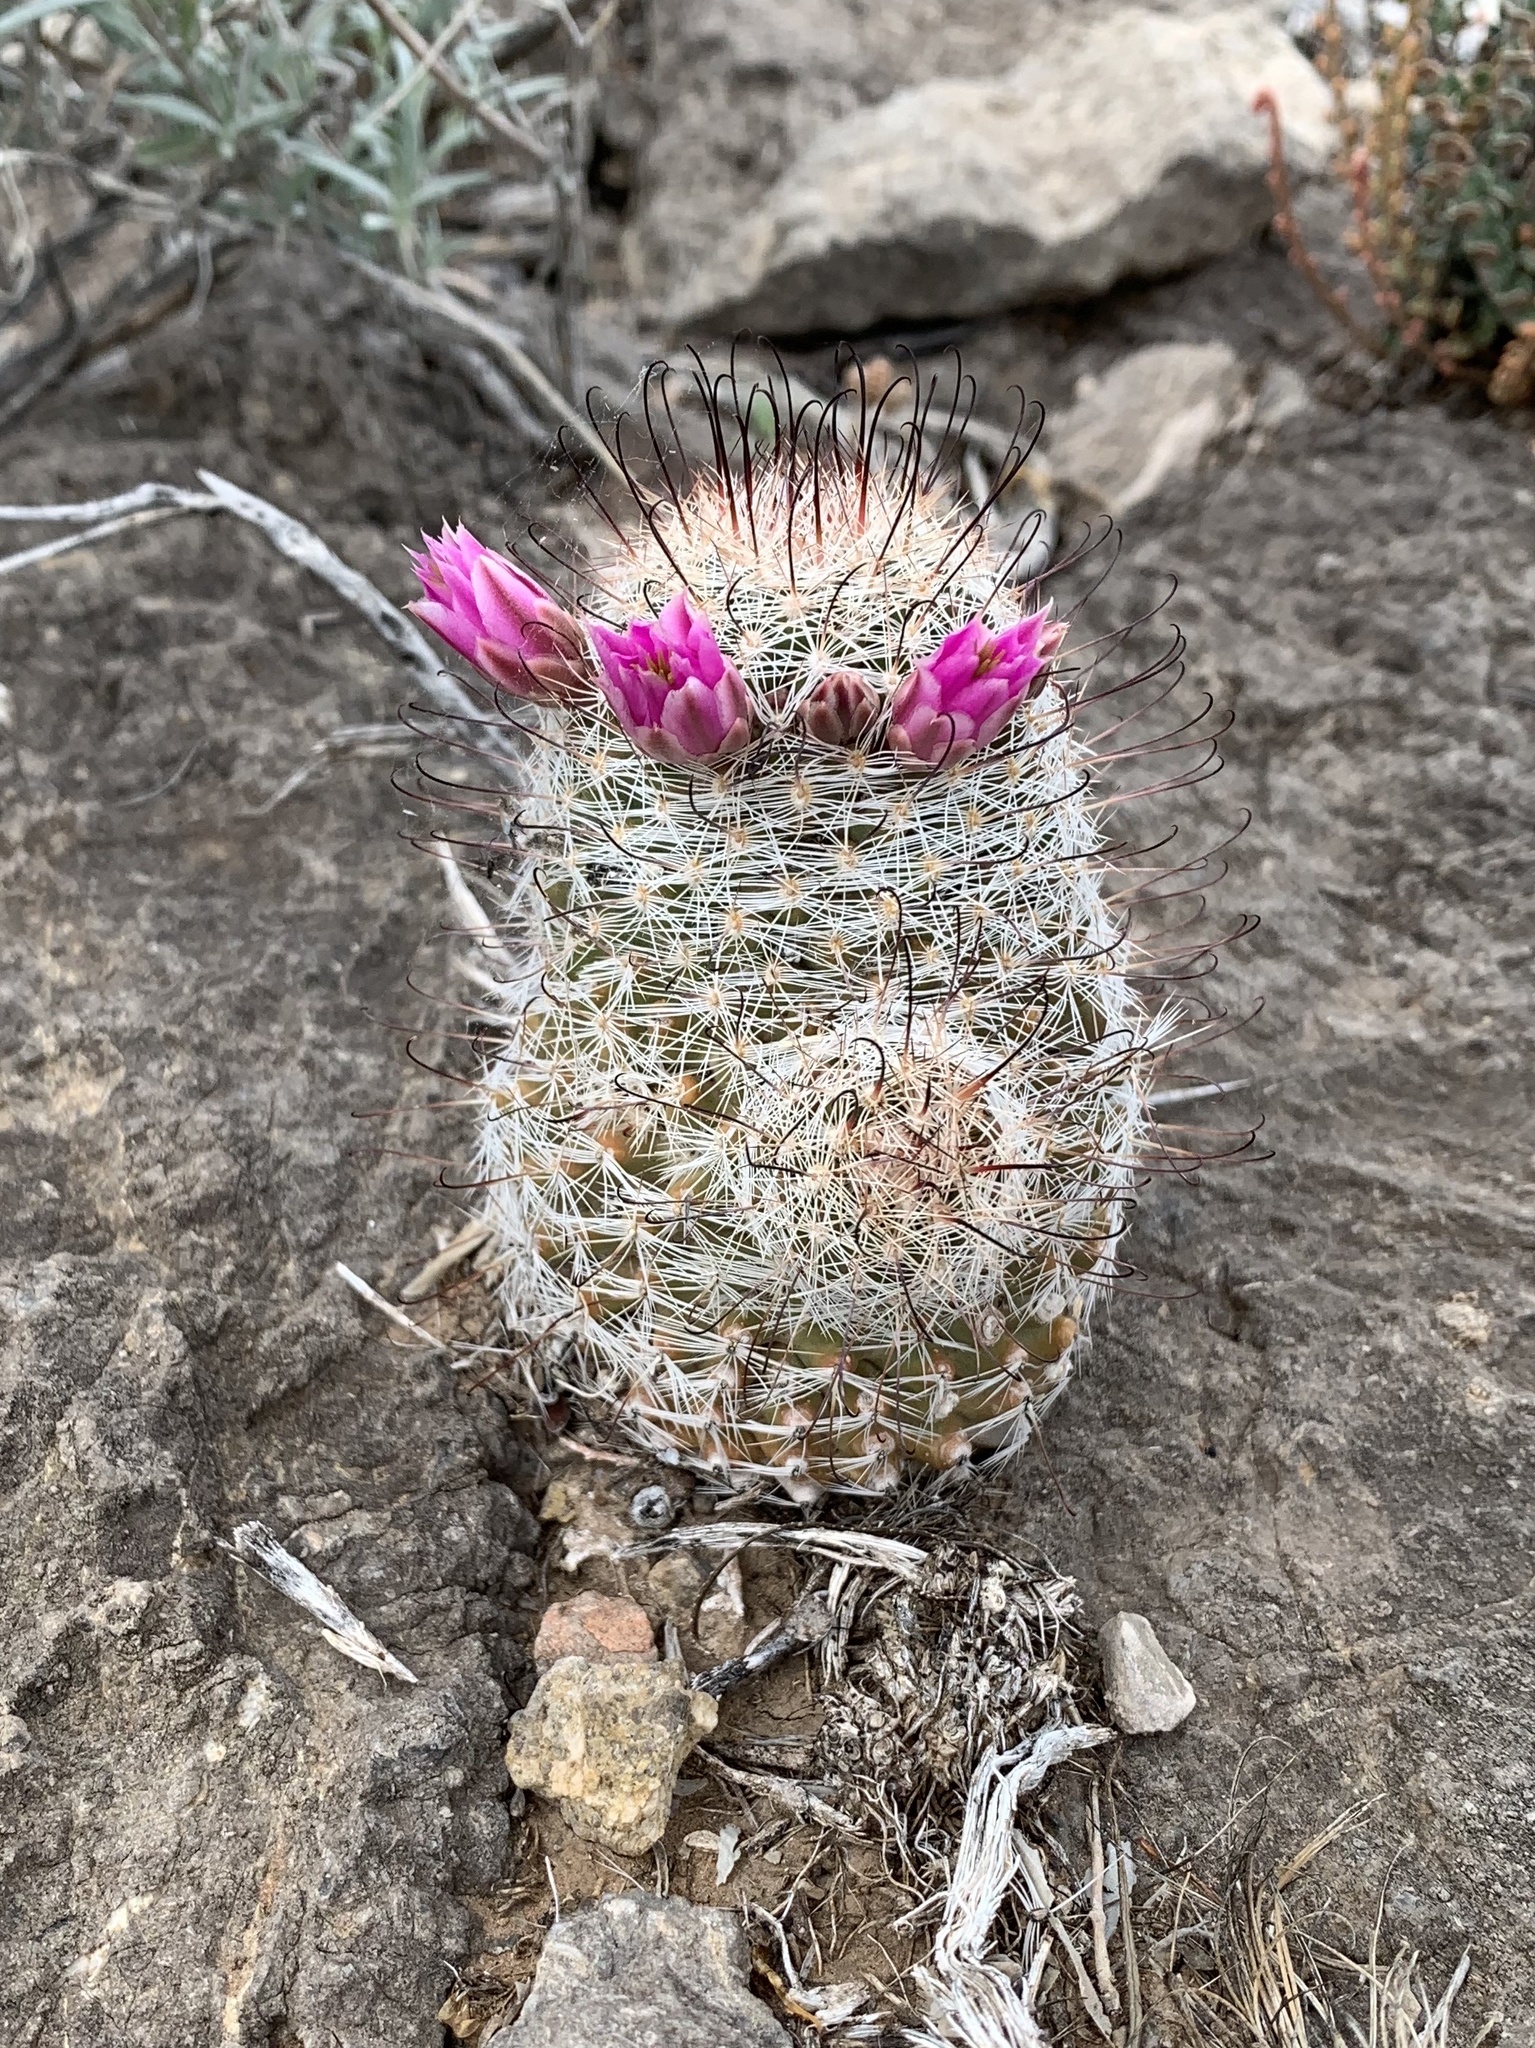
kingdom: Plantae
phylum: Tracheophyta
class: Magnoliopsida
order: Caryophyllales
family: Cactaceae
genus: Cochemiea
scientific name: Cochemiea grahamii
